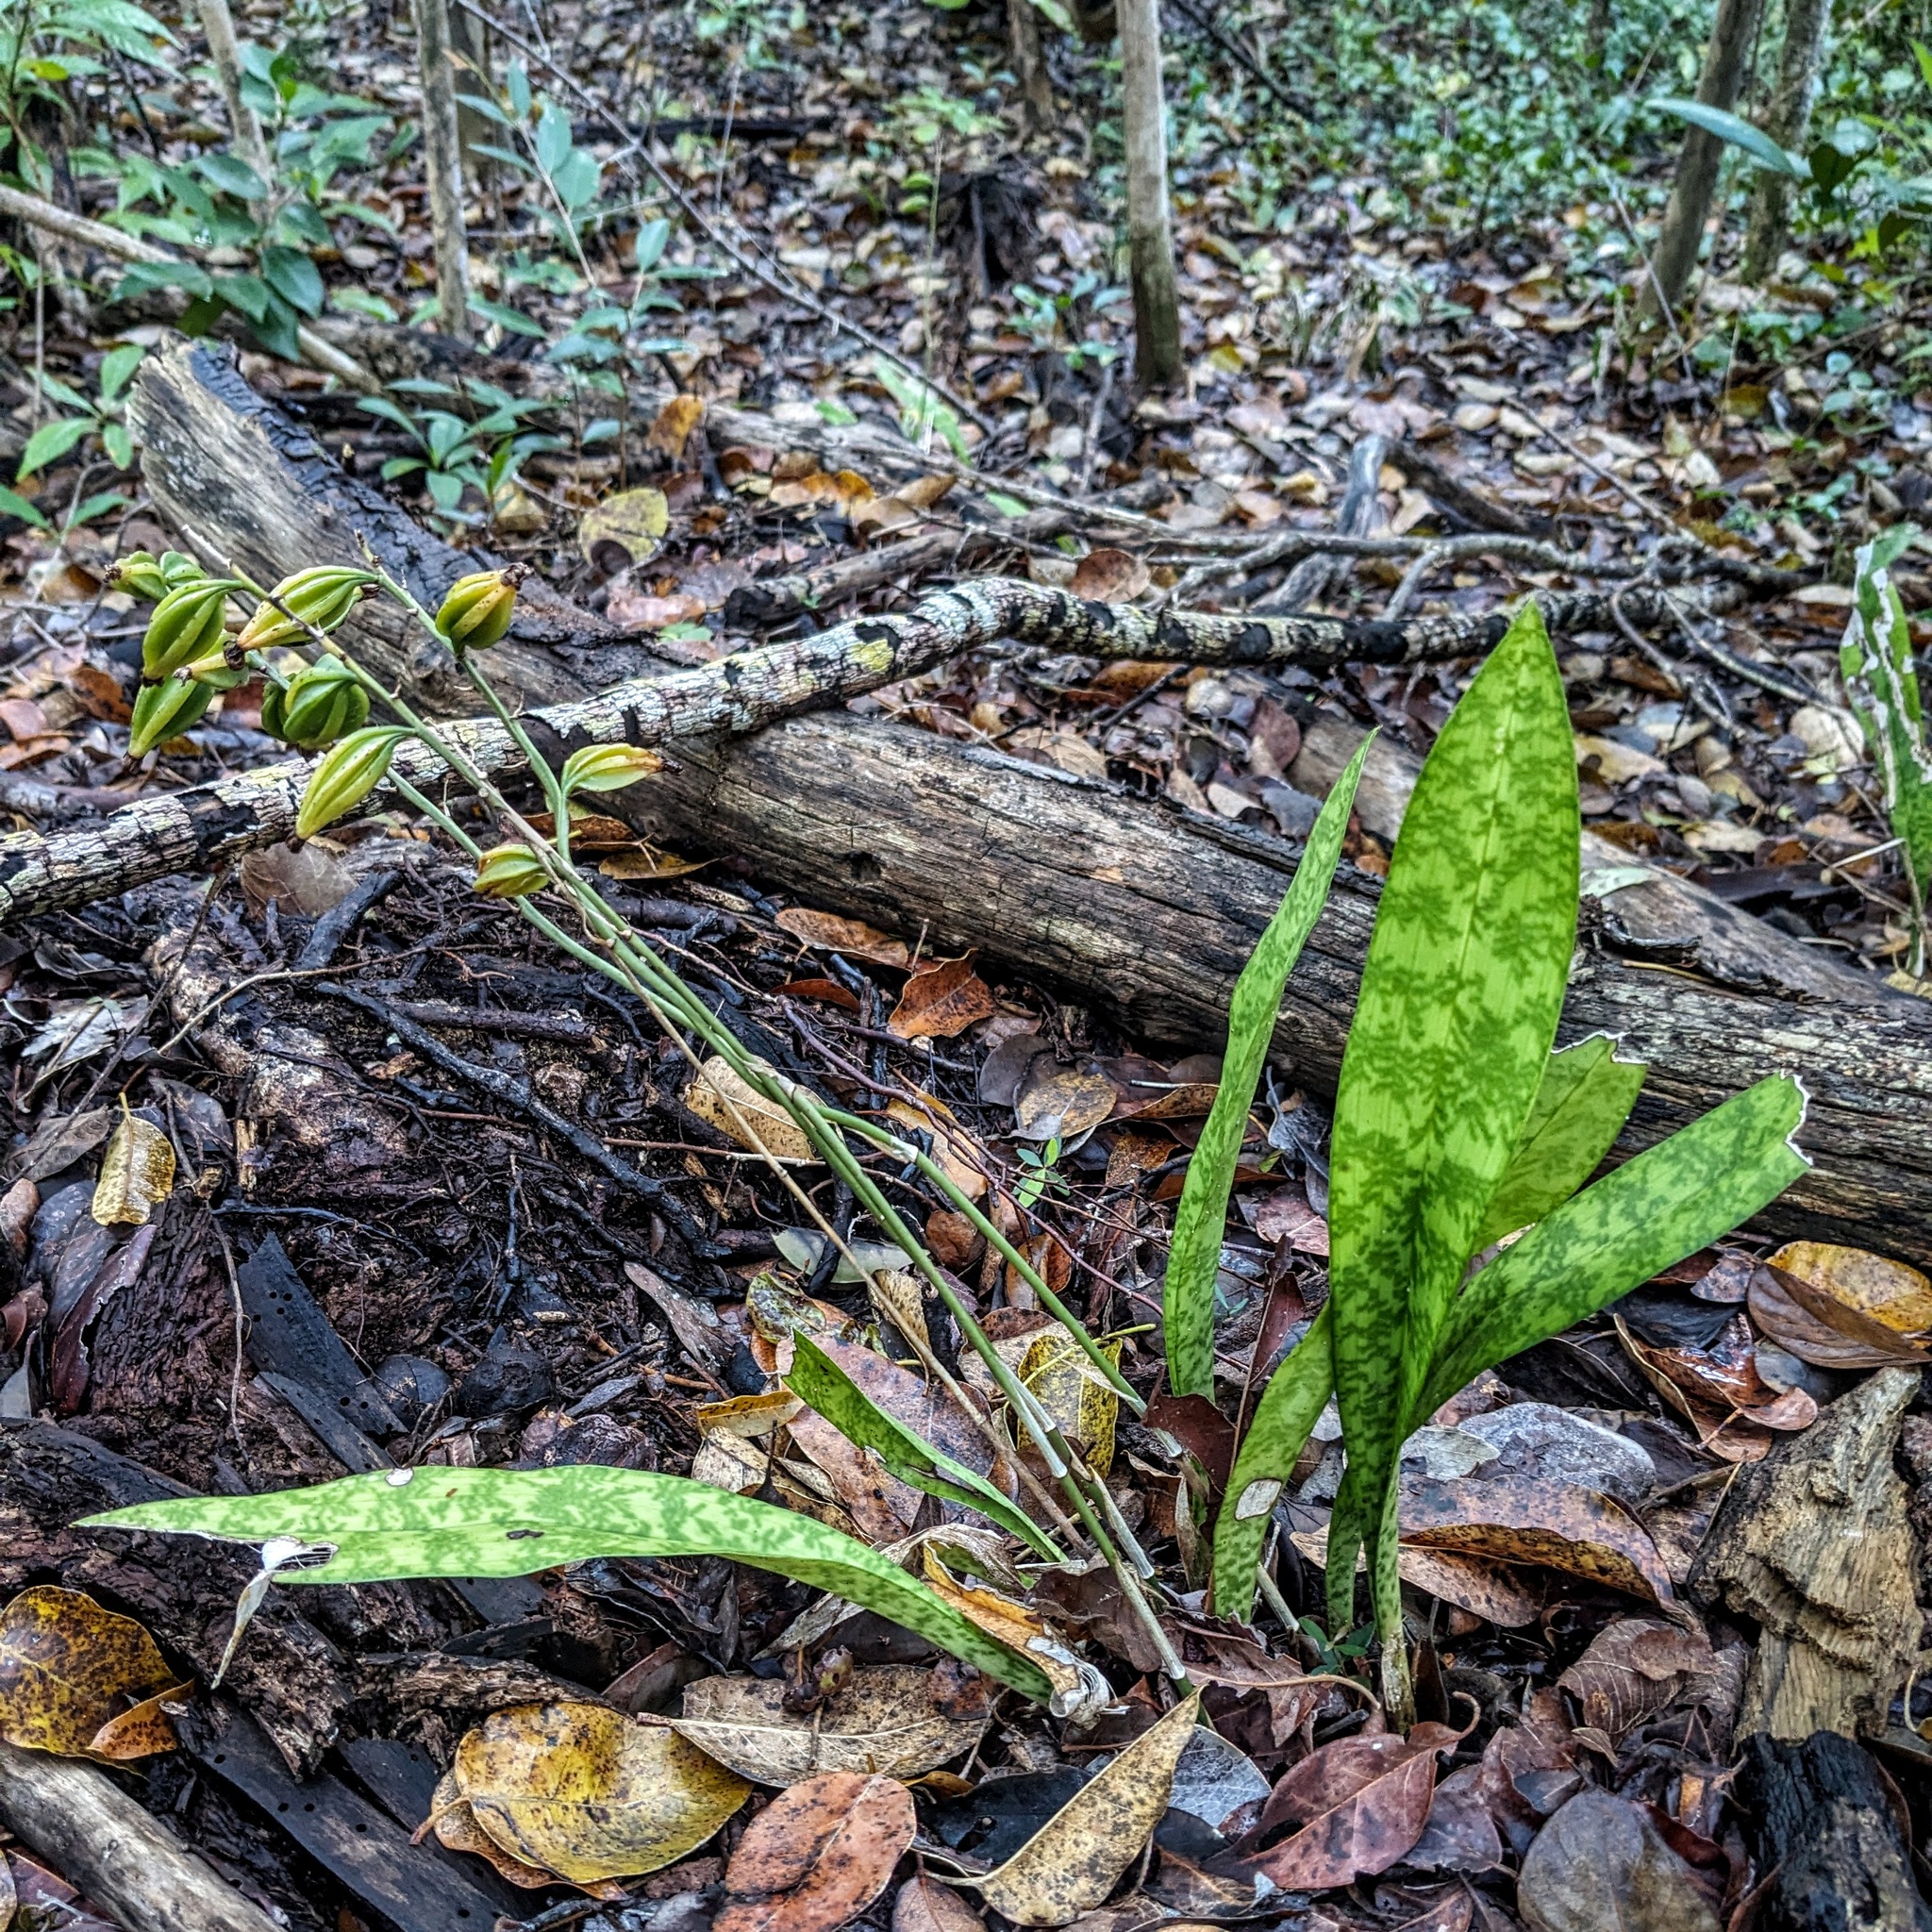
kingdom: Plantae
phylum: Tracheophyta
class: Liliopsida
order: Asparagales
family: Orchidaceae
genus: Eulophia
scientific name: Eulophia maculata
